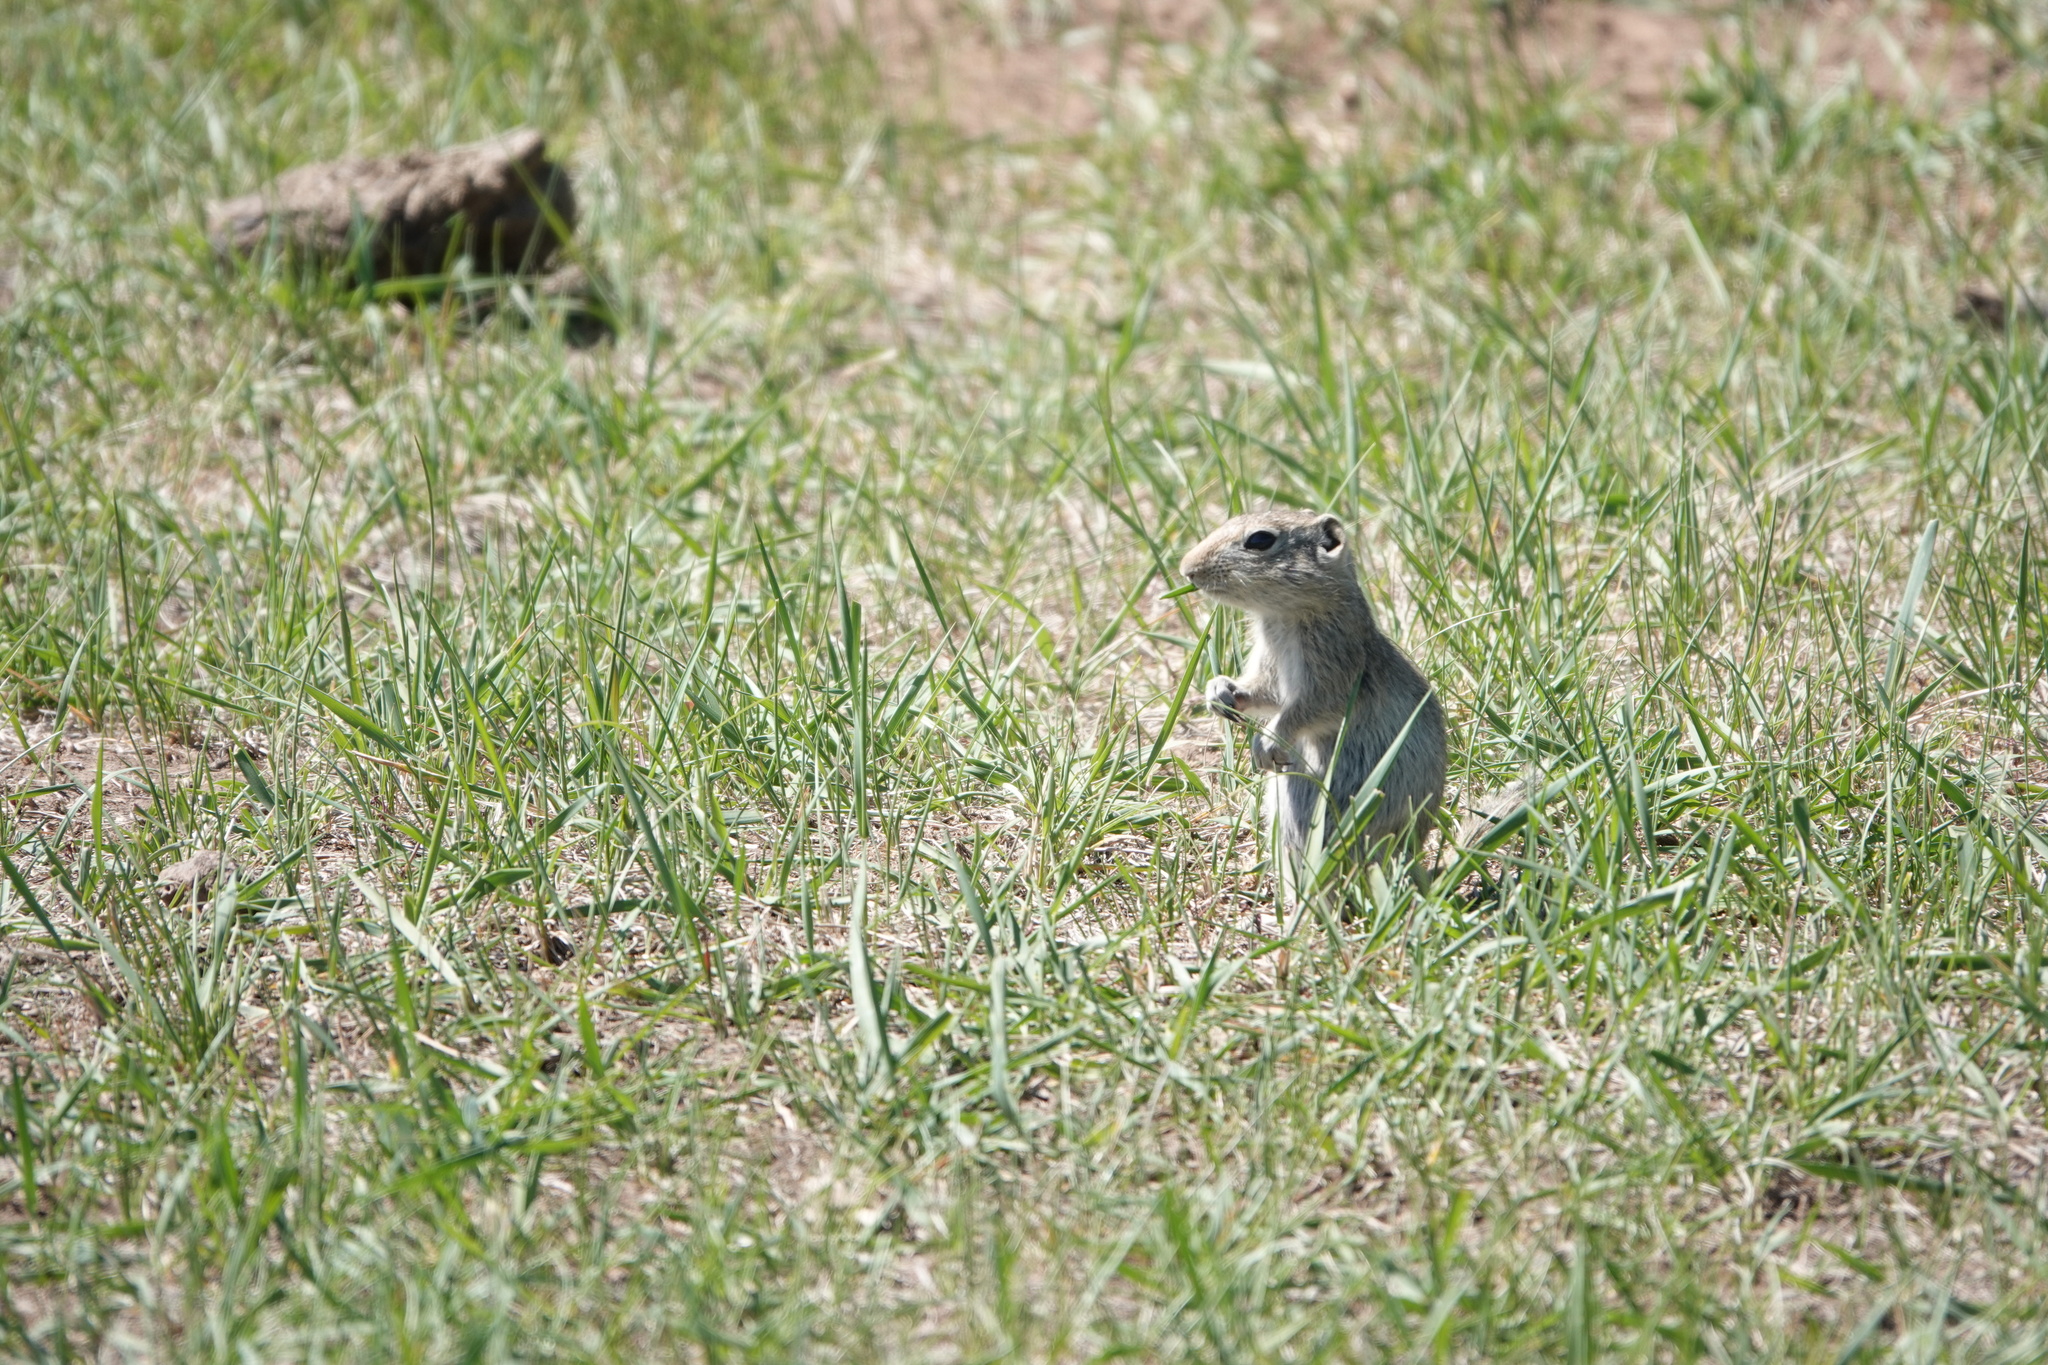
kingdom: Animalia
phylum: Chordata
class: Mammalia
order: Rodentia
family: Sciuridae
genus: Urocitellus
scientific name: Urocitellus elegans
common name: Wyoming ground squirrel
